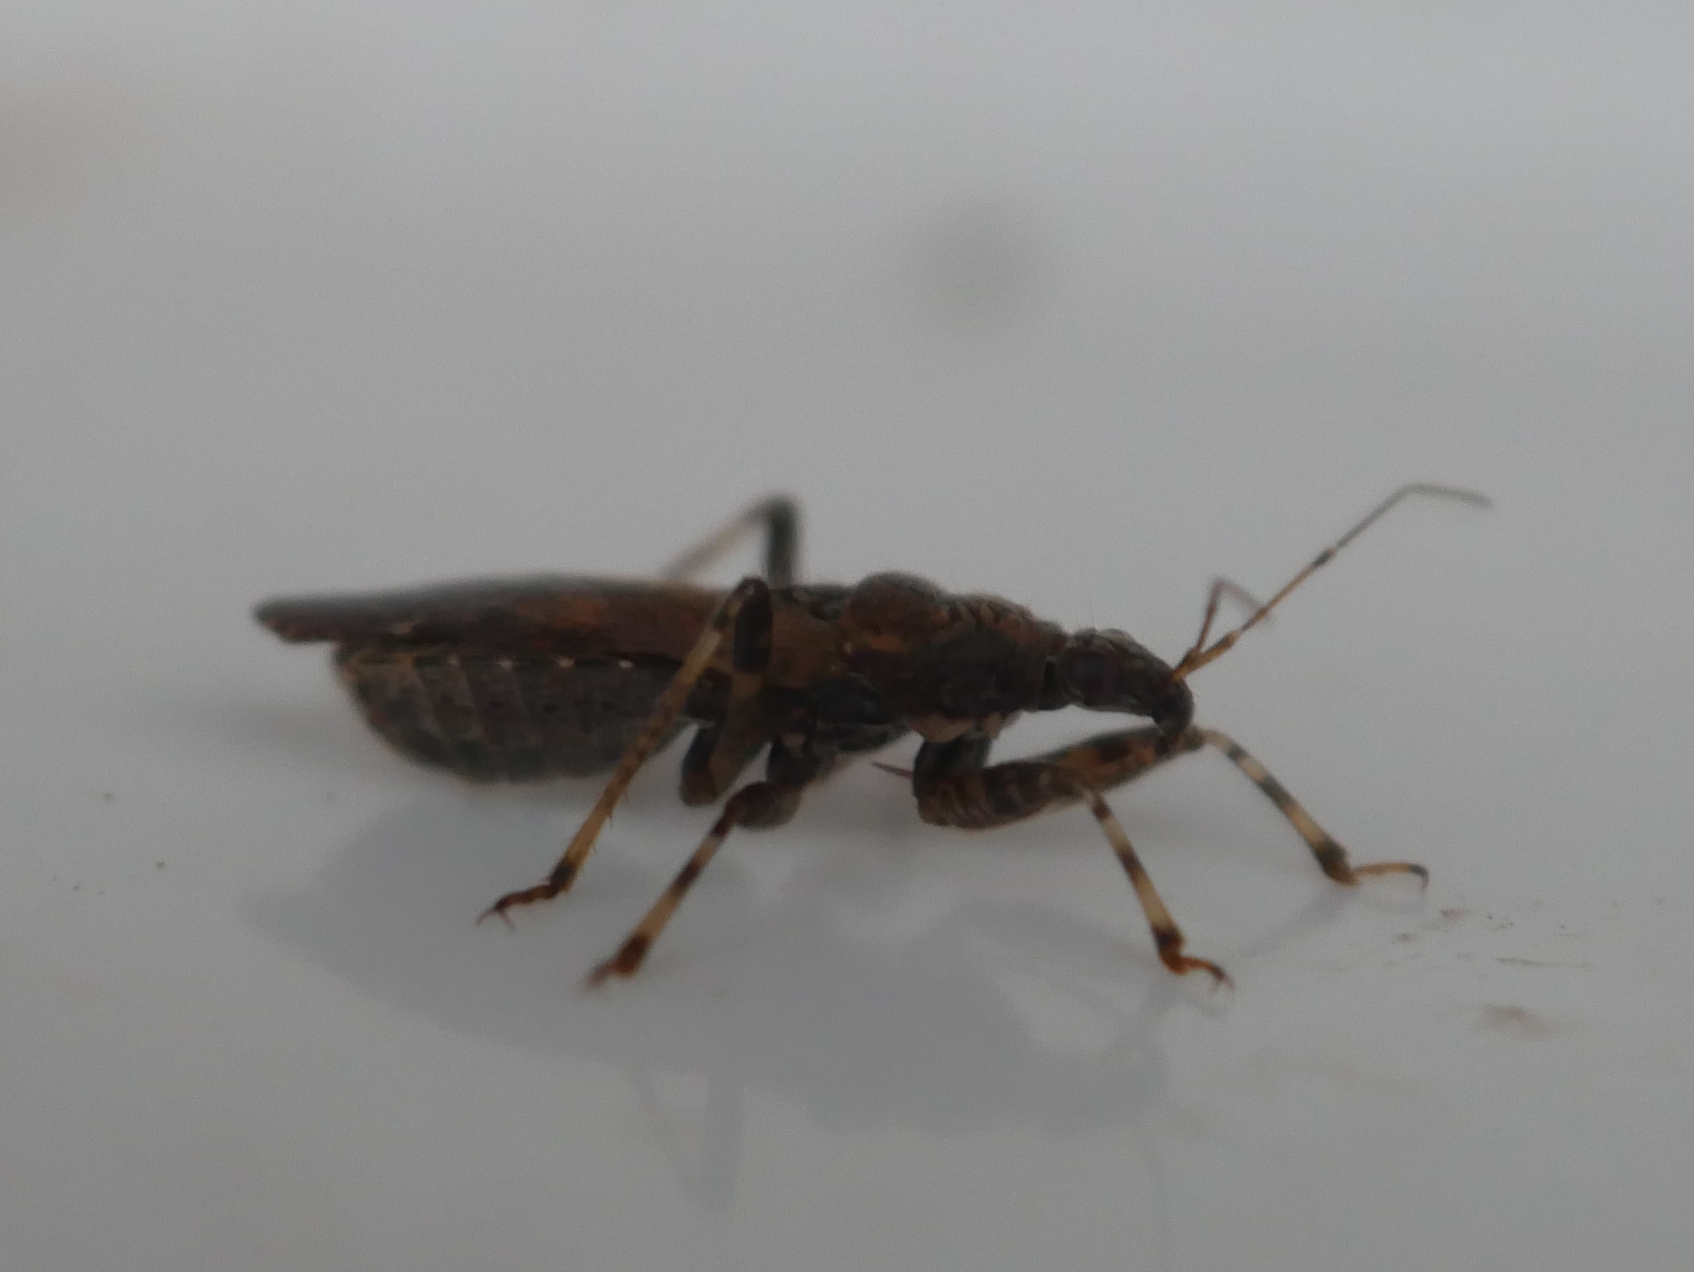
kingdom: Animalia
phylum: Arthropoda
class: Insecta
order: Hemiptera
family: Nabidae
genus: Himacerus
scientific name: Himacerus mirmicoides
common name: Ant damsel bug
